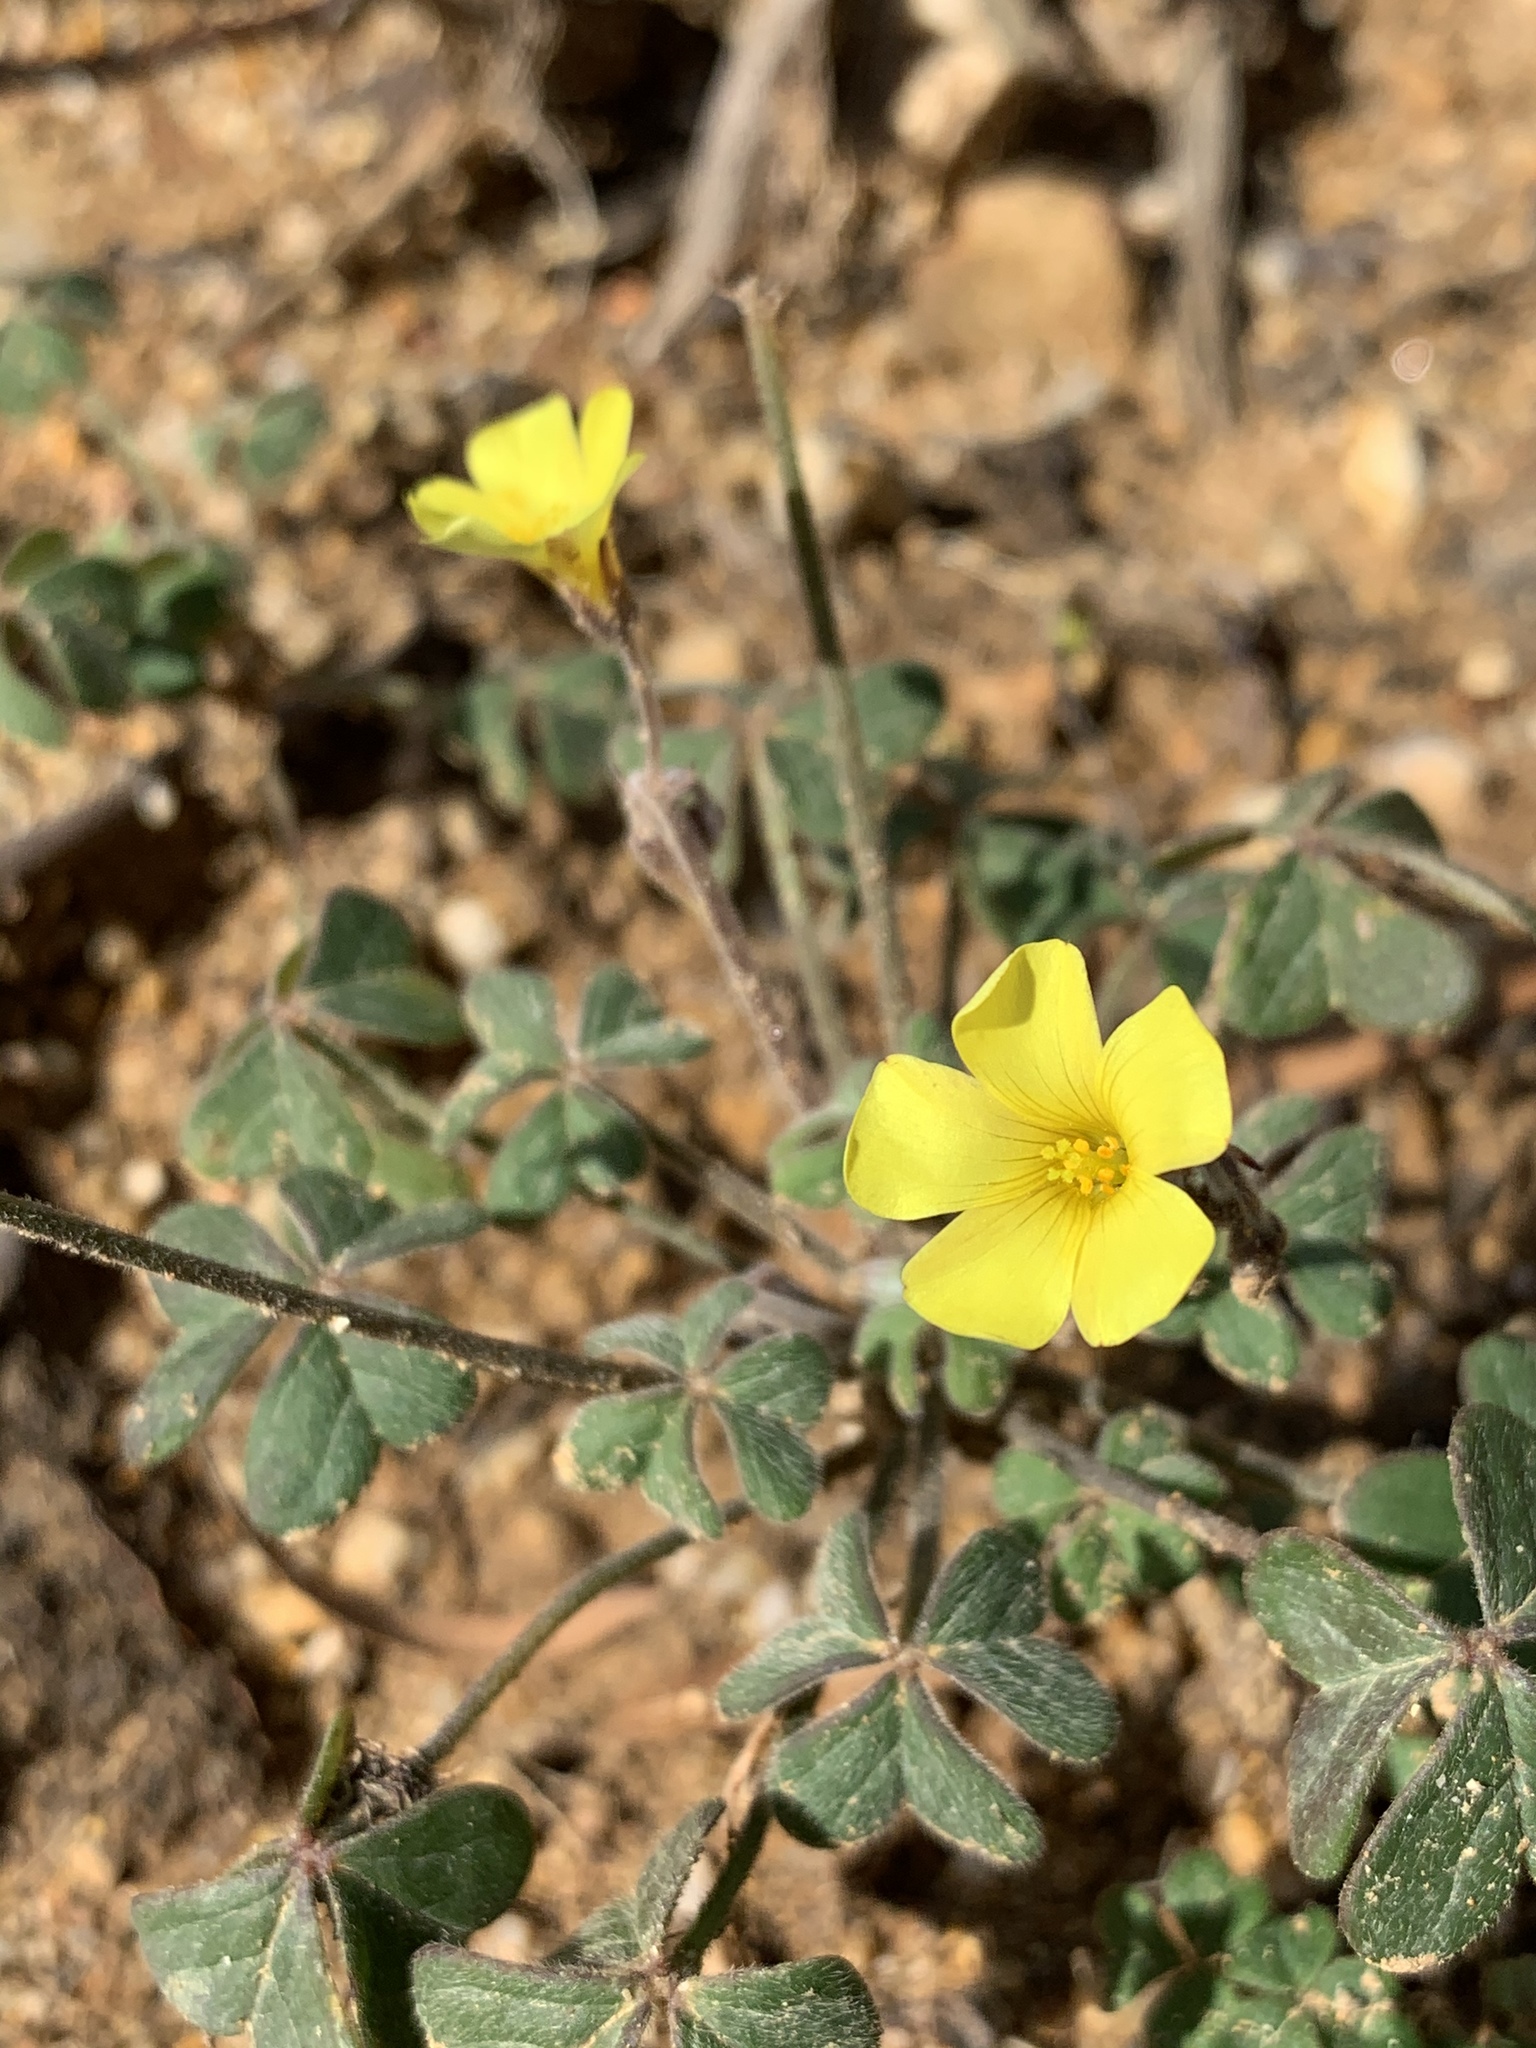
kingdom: Plantae
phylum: Tracheophyta
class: Magnoliopsida
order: Oxalidales
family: Oxalidaceae
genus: Oxalis
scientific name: Oxalis pes-caprae
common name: Bermuda-buttercup
